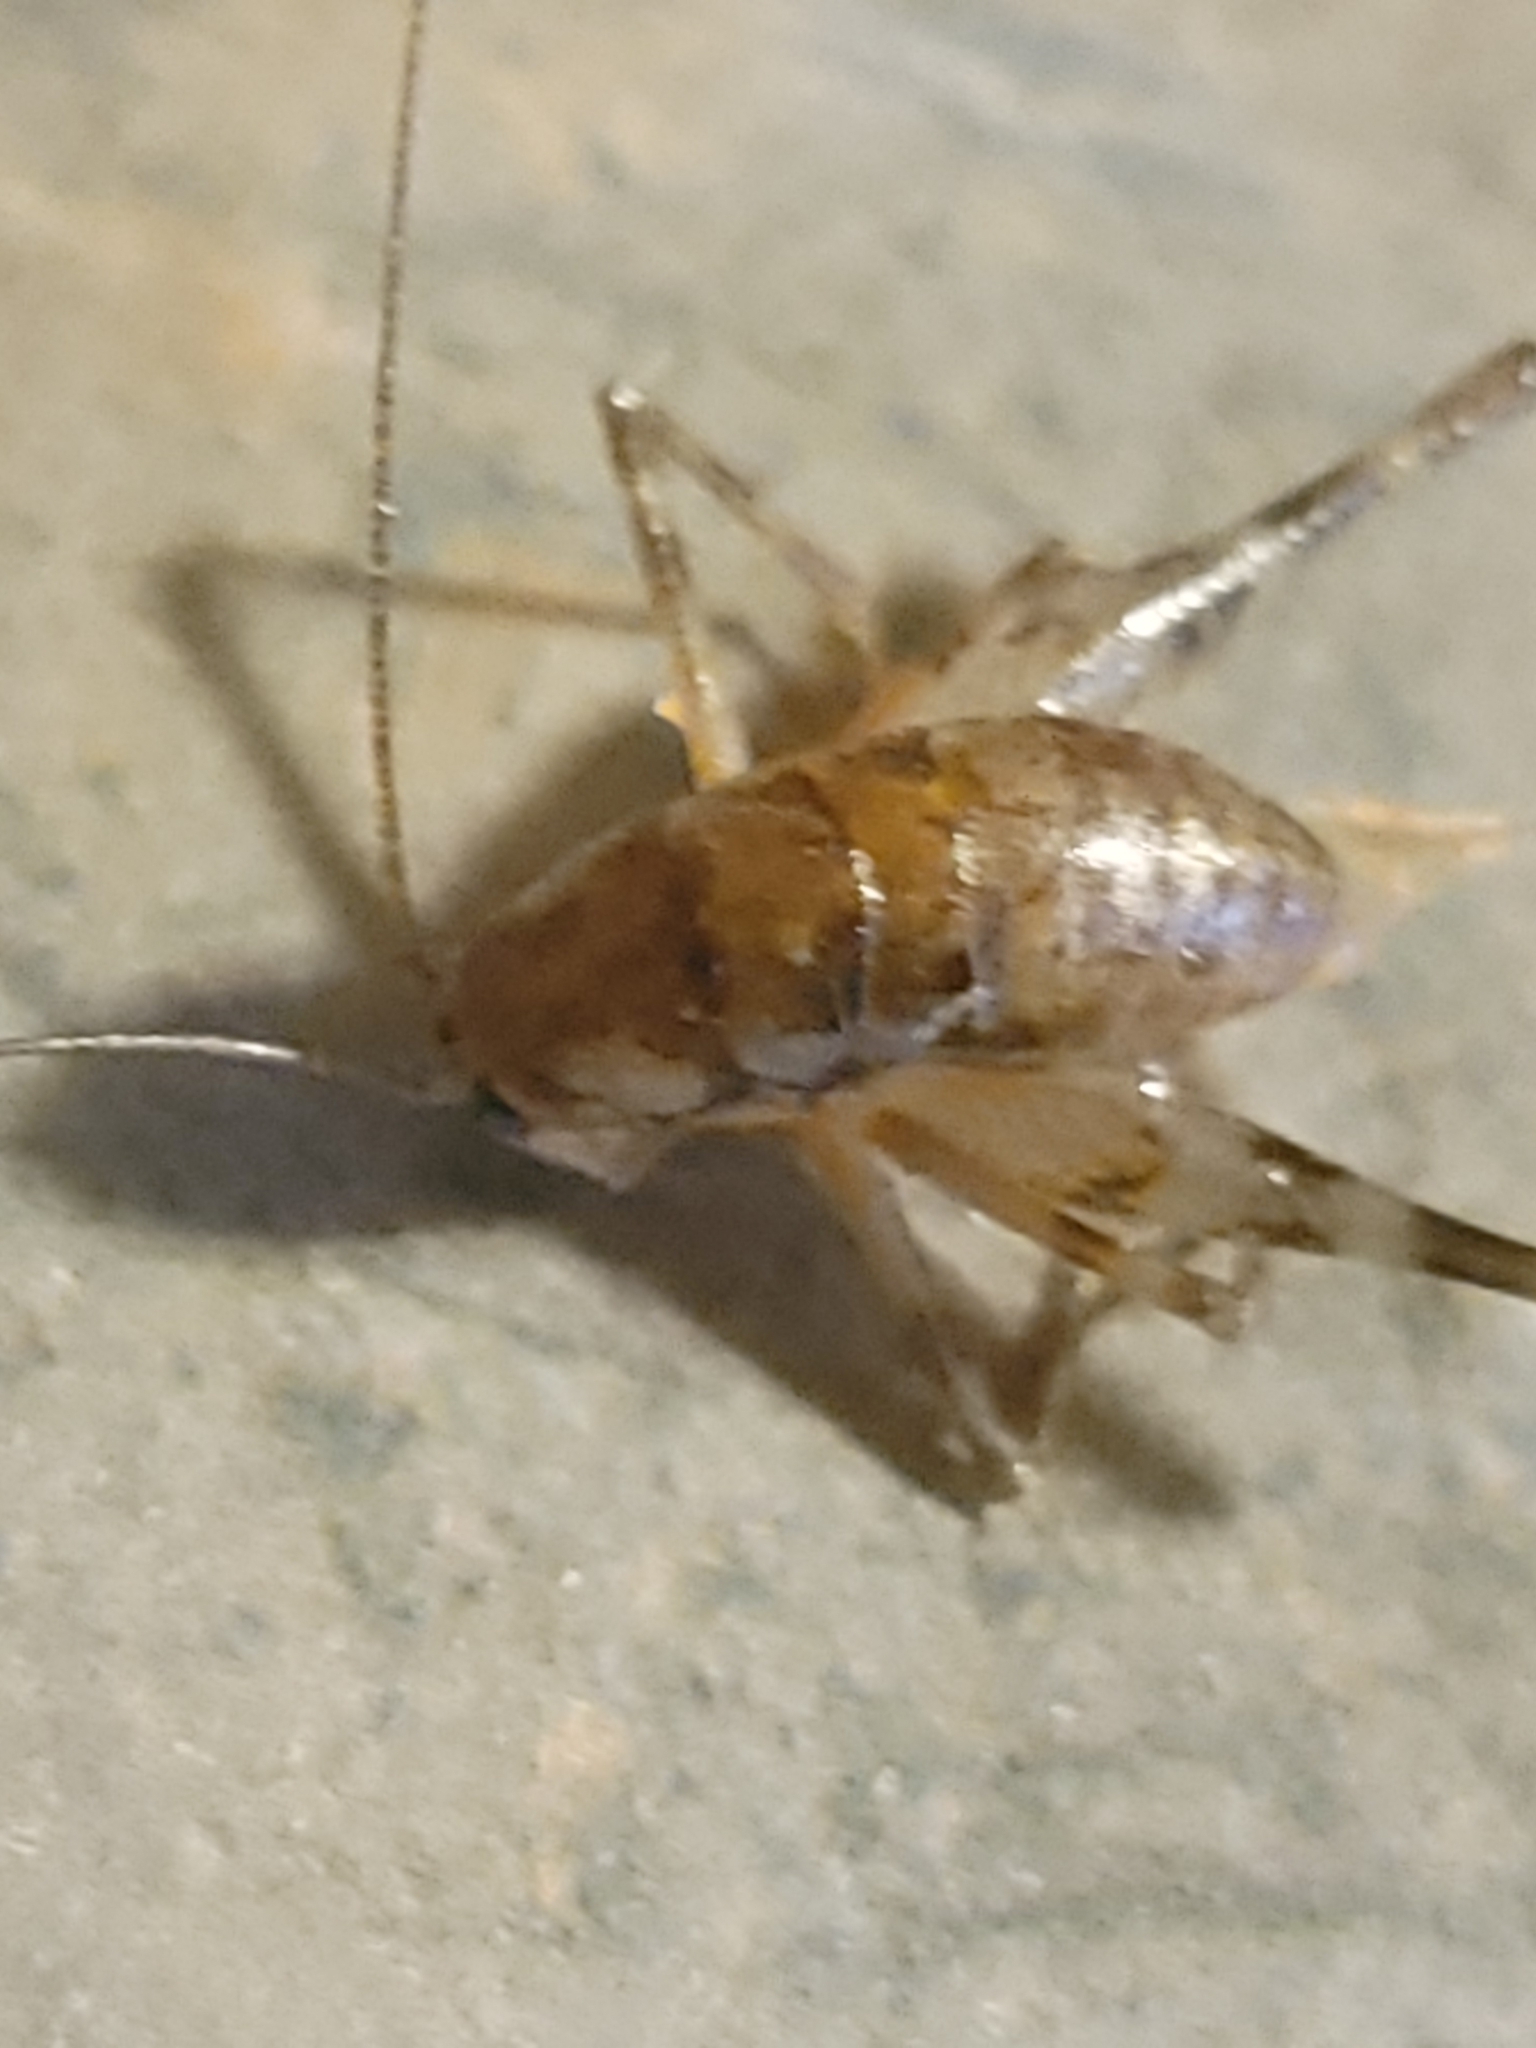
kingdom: Animalia
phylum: Arthropoda
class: Insecta
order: Orthoptera
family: Rhaphidophoridae
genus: Tachycines
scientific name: Tachycines asynamorus
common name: Greenhouse camel cricket
